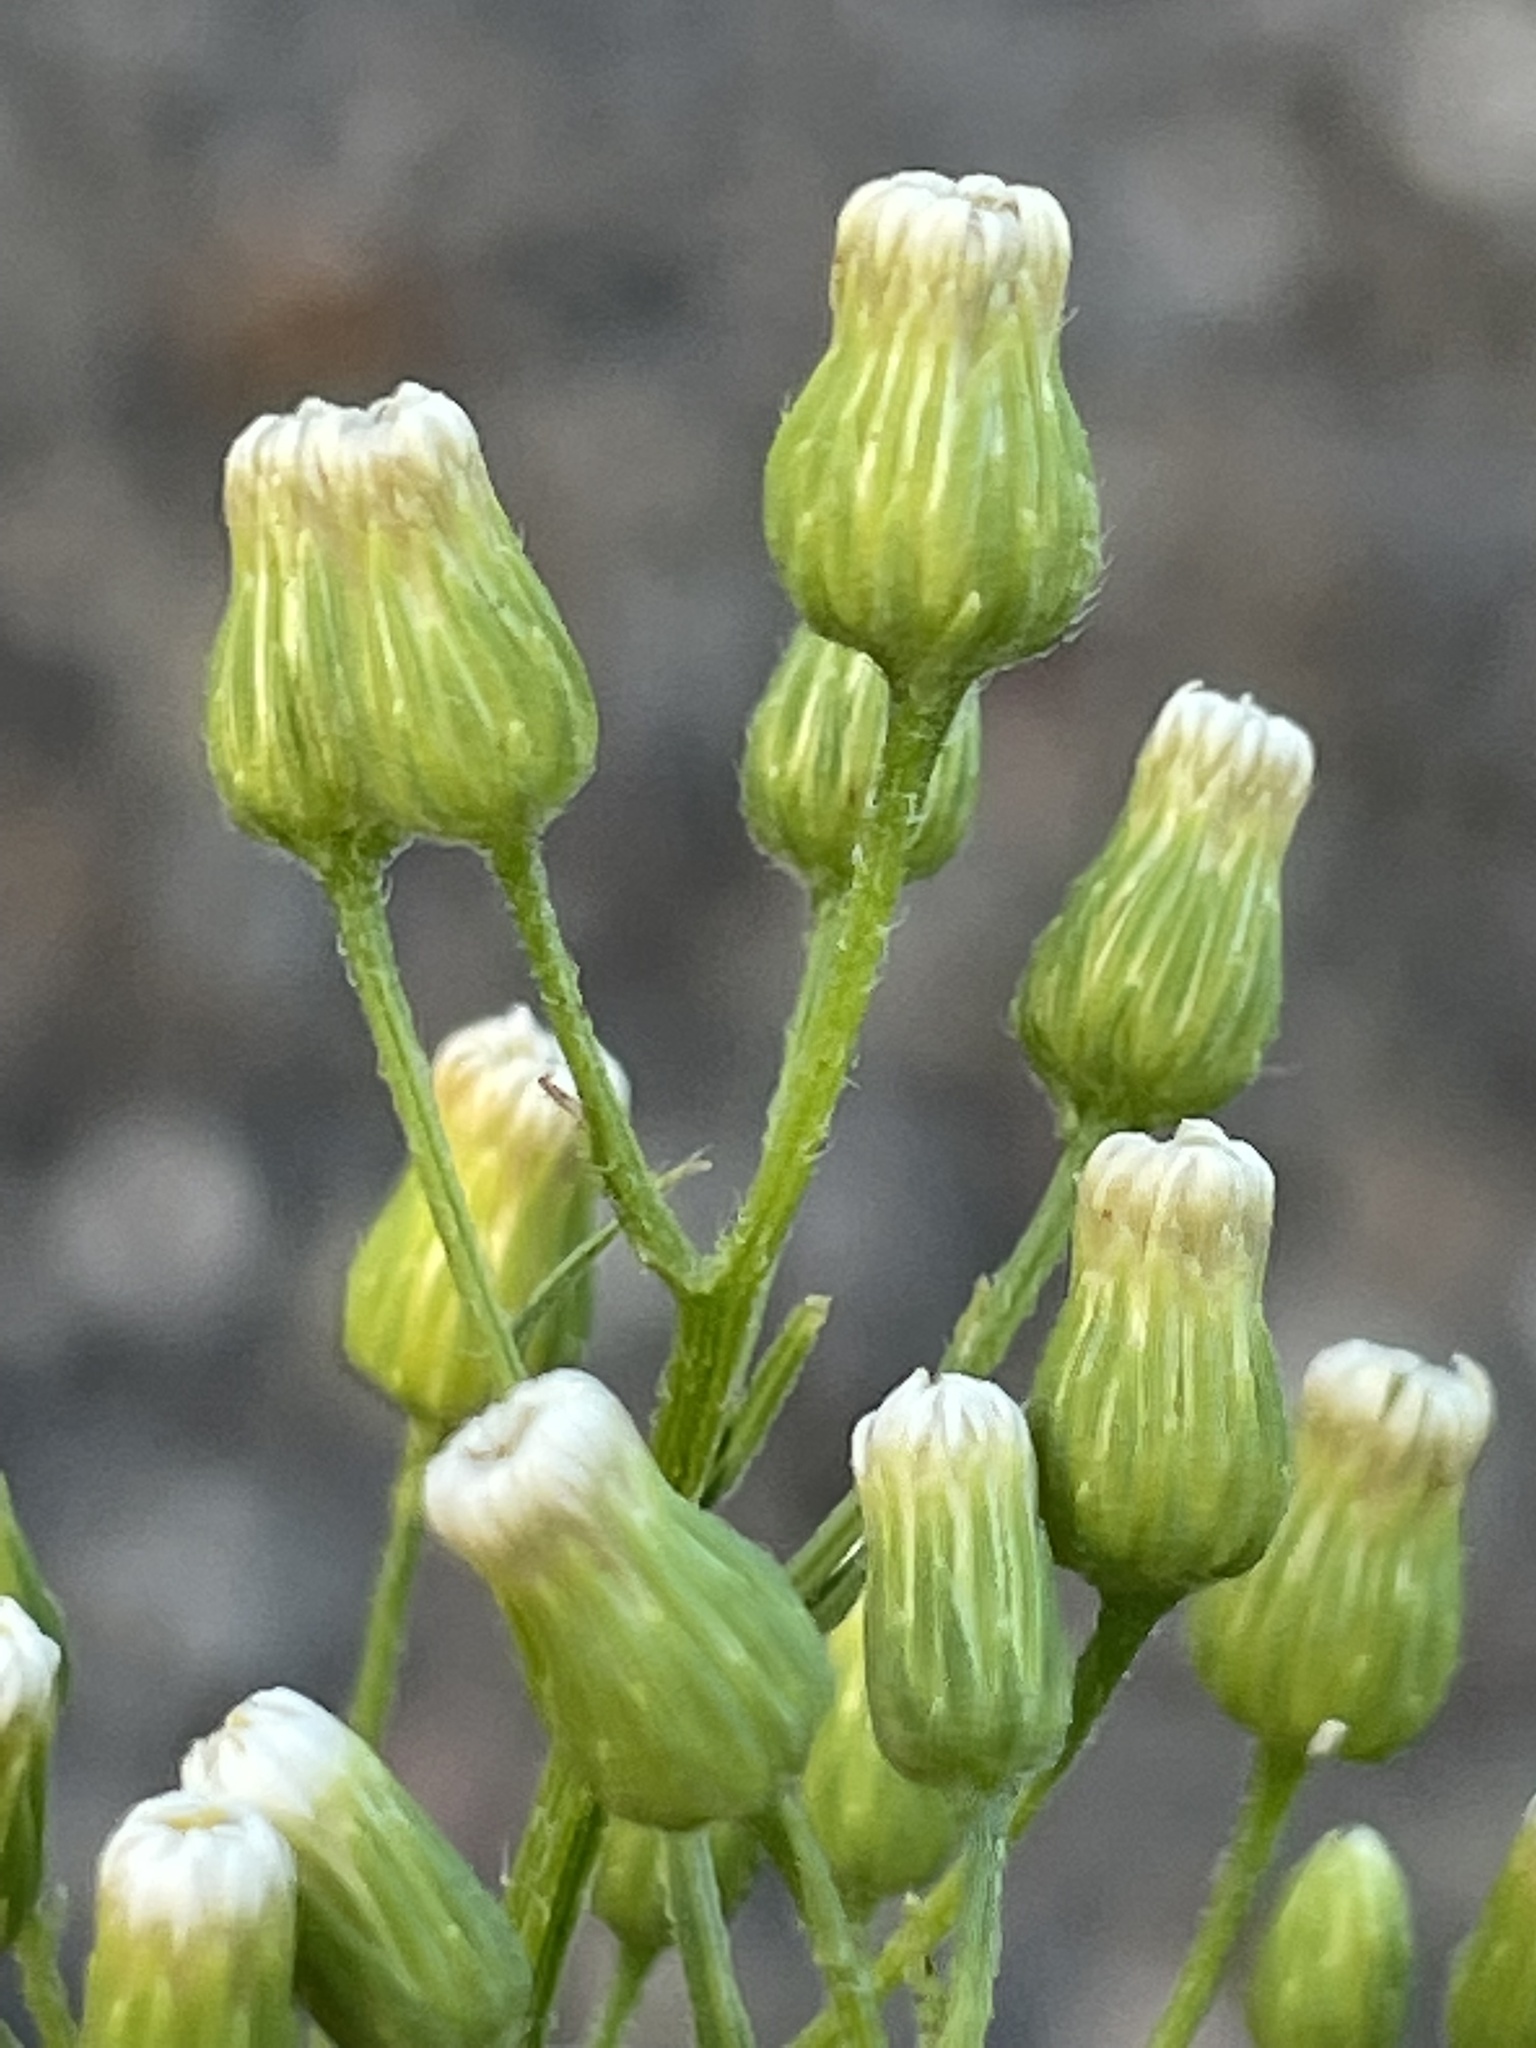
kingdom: Plantae
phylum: Tracheophyta
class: Magnoliopsida
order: Asterales
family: Asteraceae
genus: Erigeron
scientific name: Erigeron canadensis
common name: Canadian fleabane
